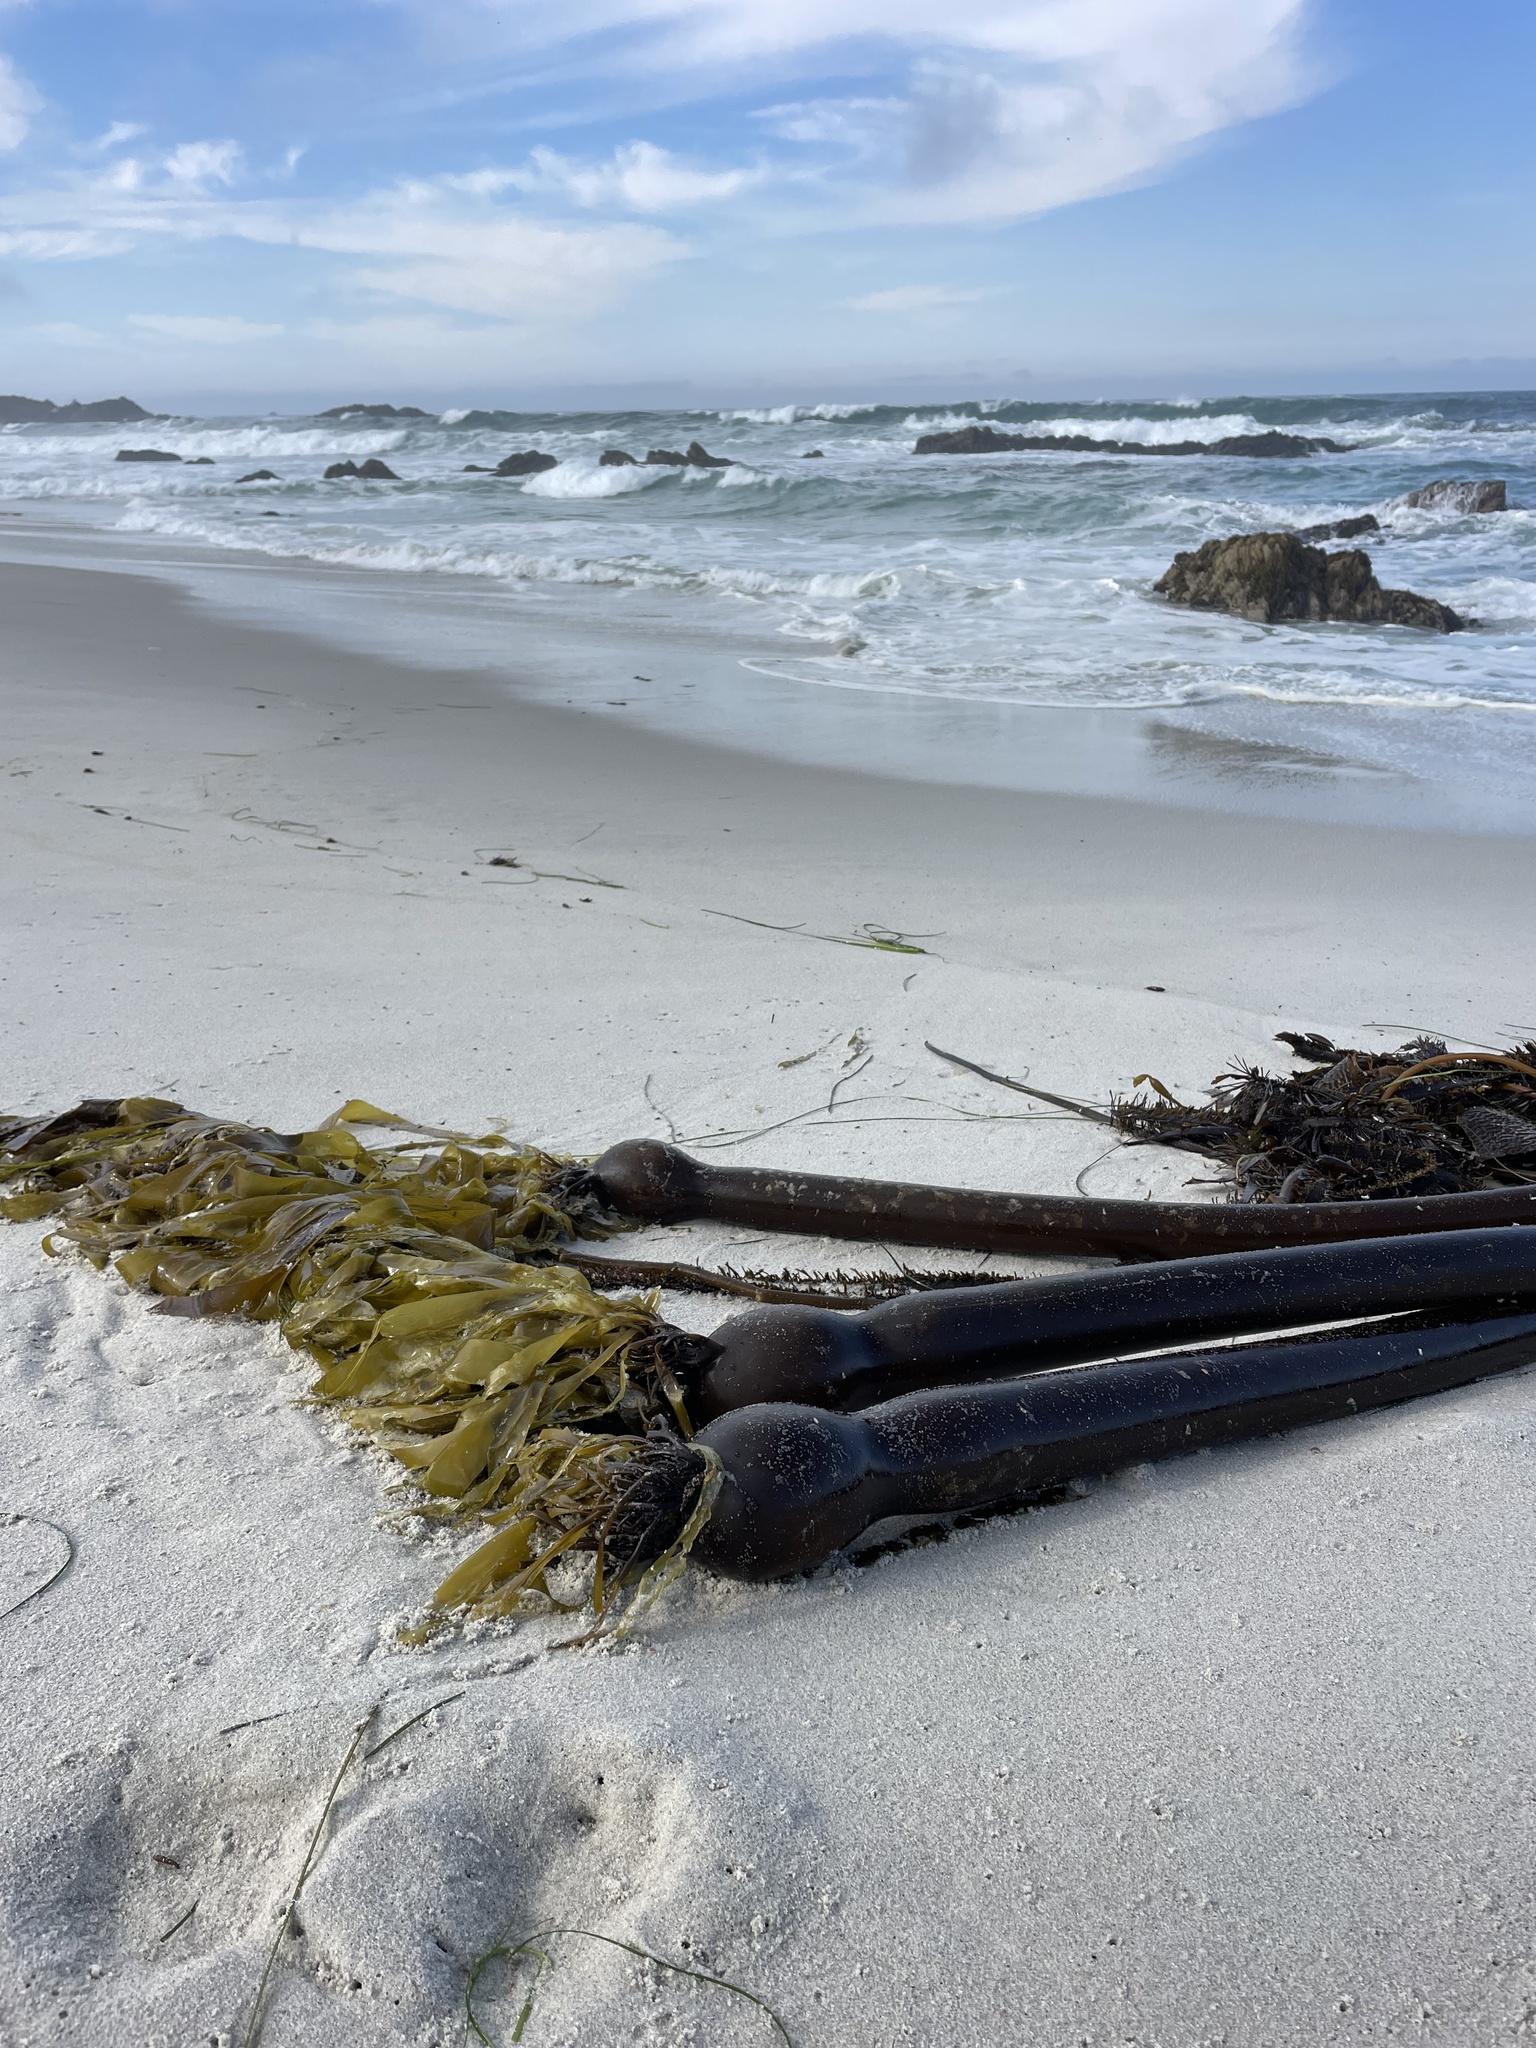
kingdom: Chromista
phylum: Ochrophyta
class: Phaeophyceae
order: Laminariales
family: Laminariaceae
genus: Nereocystis
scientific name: Nereocystis luetkeana
